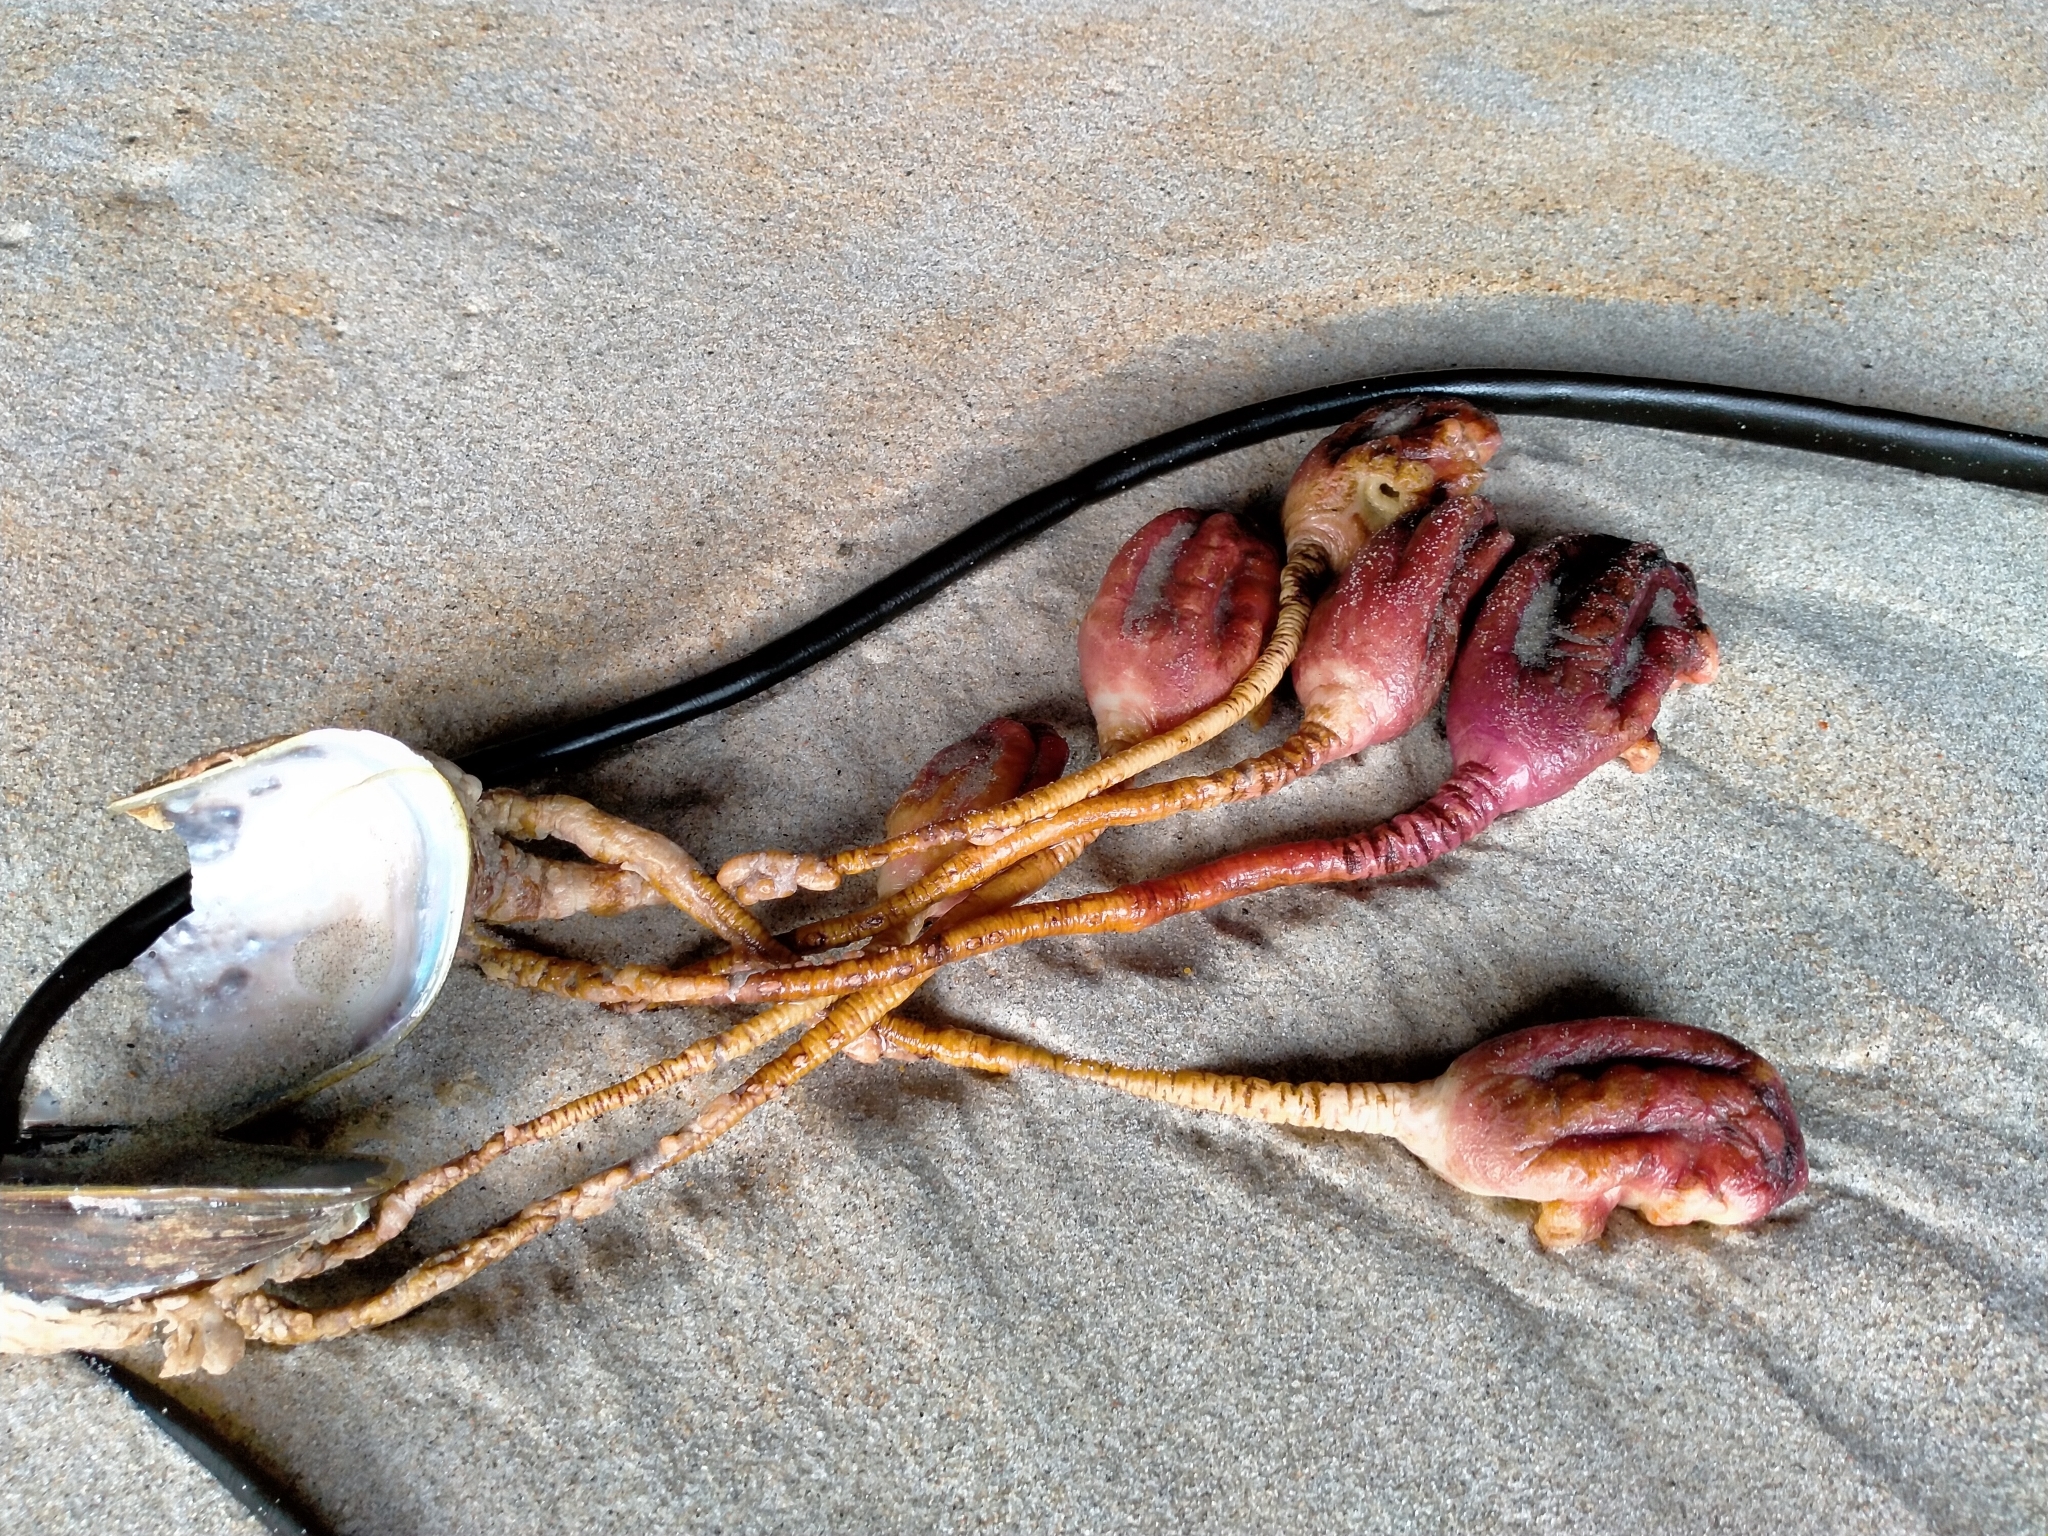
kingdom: Animalia
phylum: Chordata
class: Ascidiacea
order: Stolidobranchia
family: Pyuridae
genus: Pyura
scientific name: Pyura pachydermatina
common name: Sea tulip
